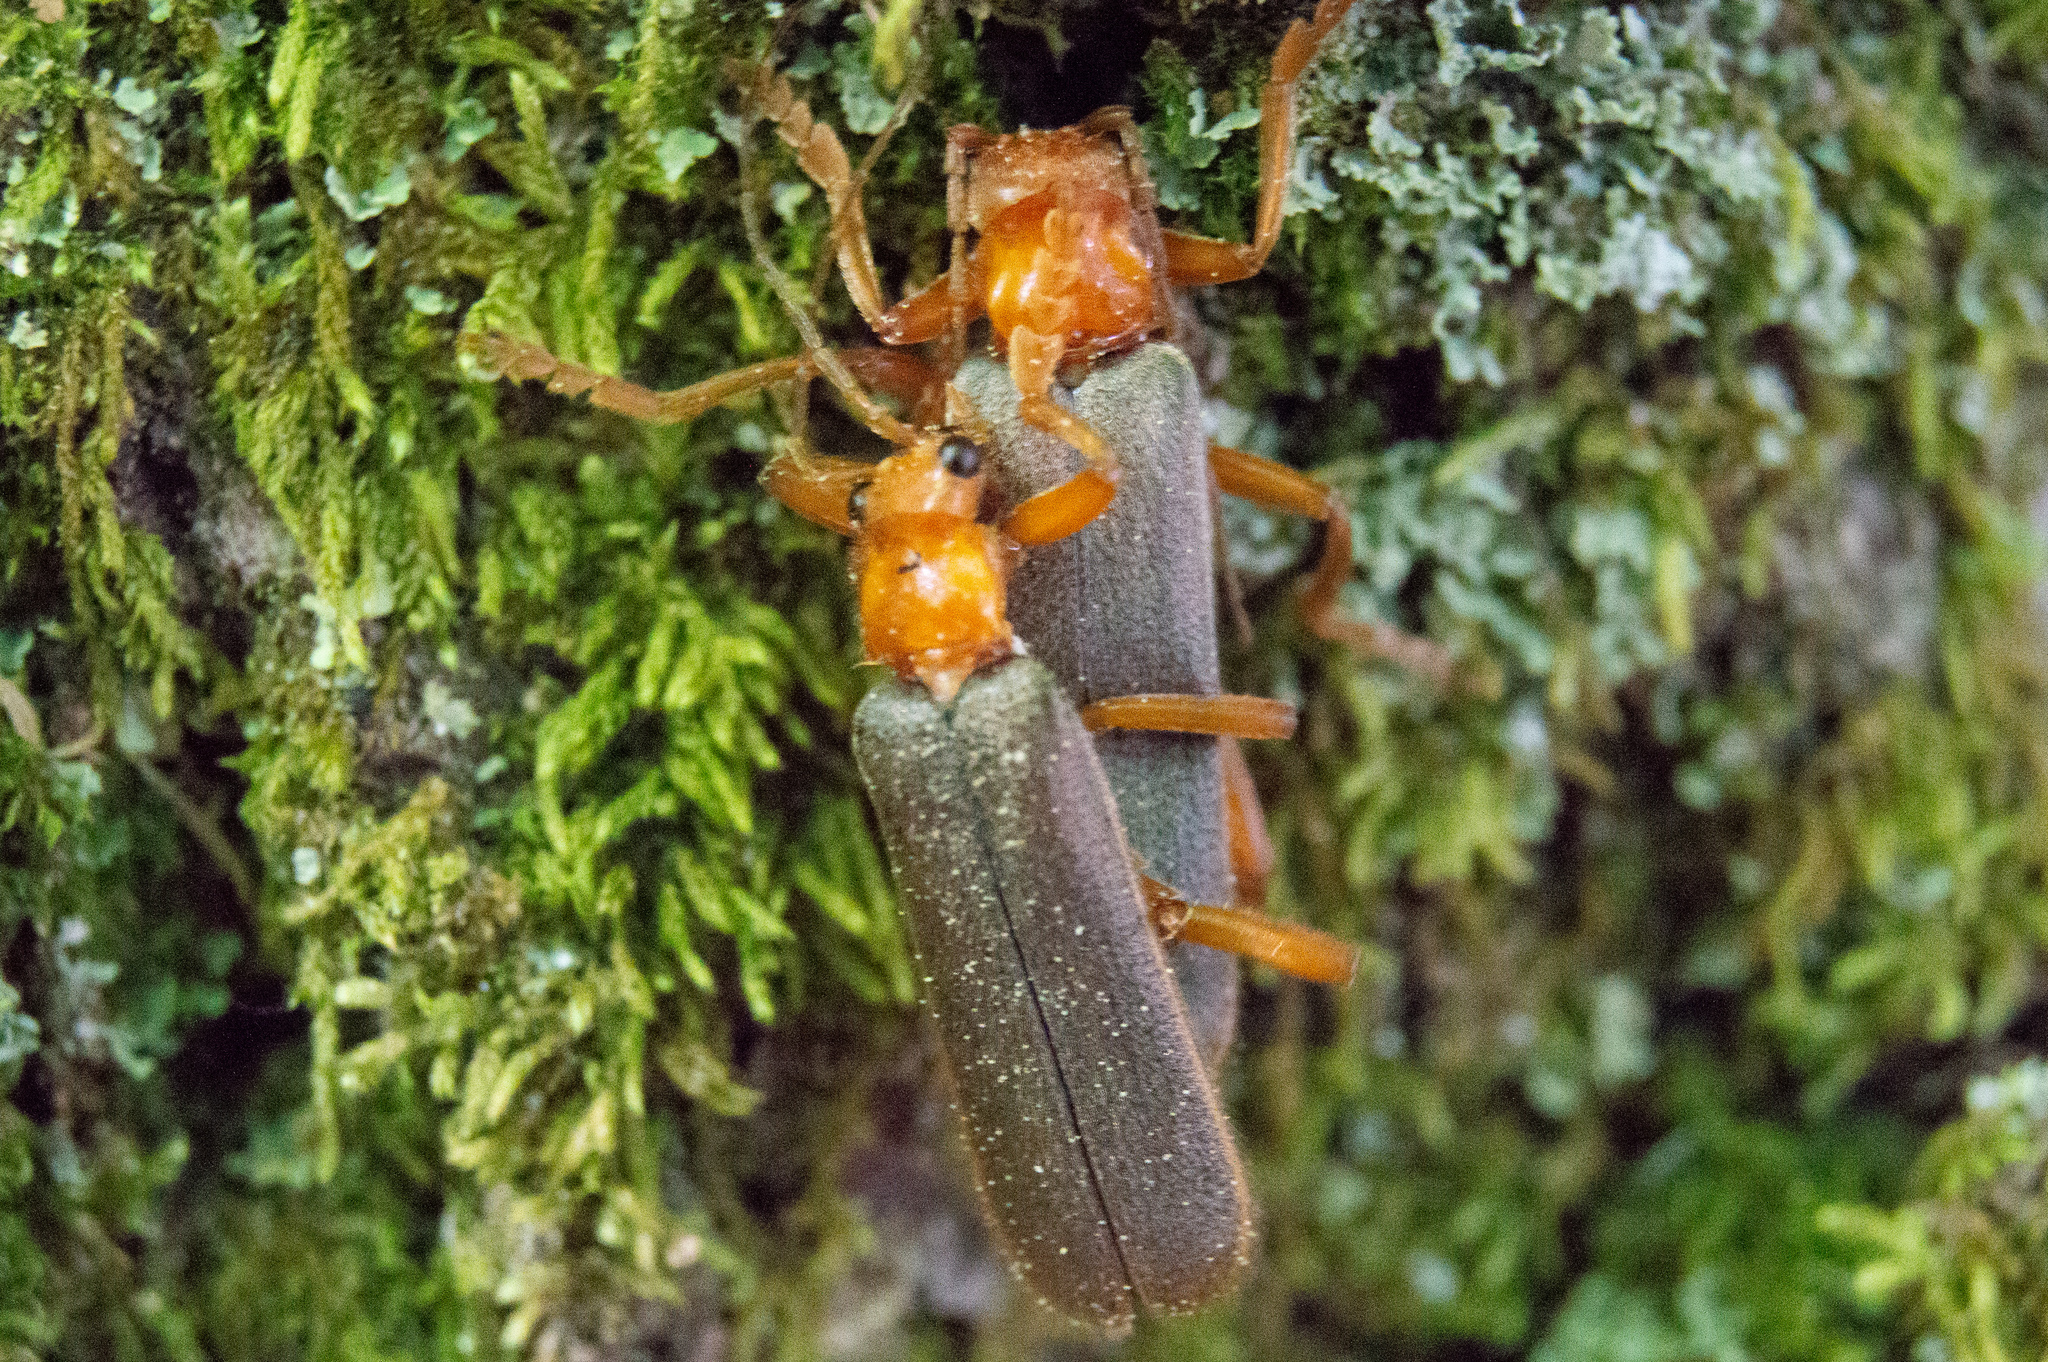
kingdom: Animalia
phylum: Arthropoda
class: Insecta
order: Coleoptera
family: Cantharidae
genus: Pacificanthia
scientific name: Pacificanthia rotundicollis
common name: Brown leatherwing beetle
